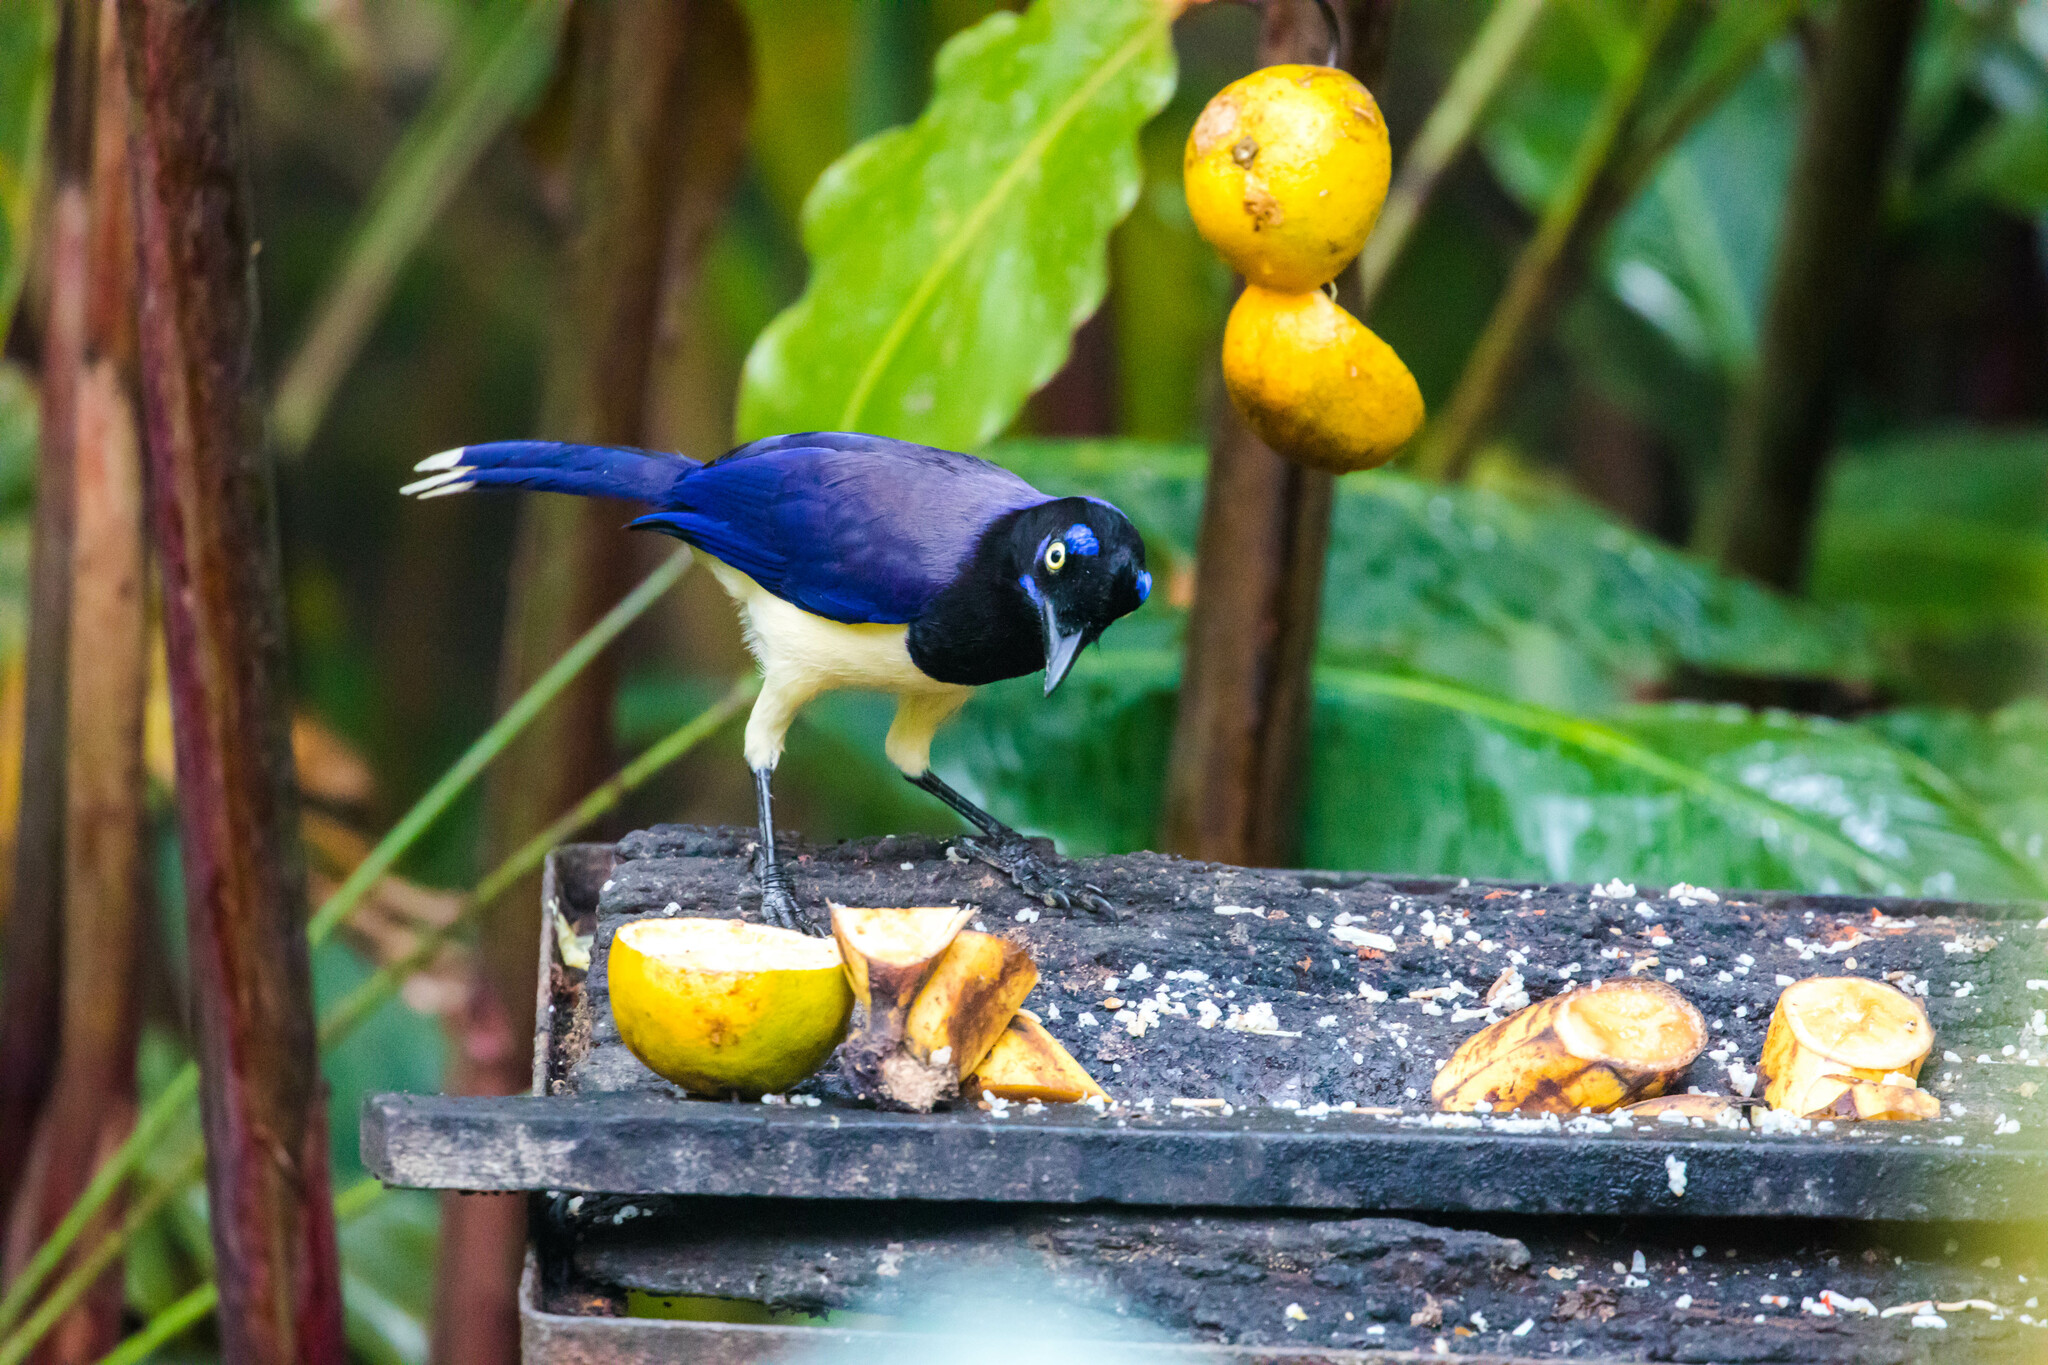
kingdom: Animalia
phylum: Chordata
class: Aves
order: Passeriformes
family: Corvidae
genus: Cyanocorax
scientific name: Cyanocorax affinis
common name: Black-chested jay
